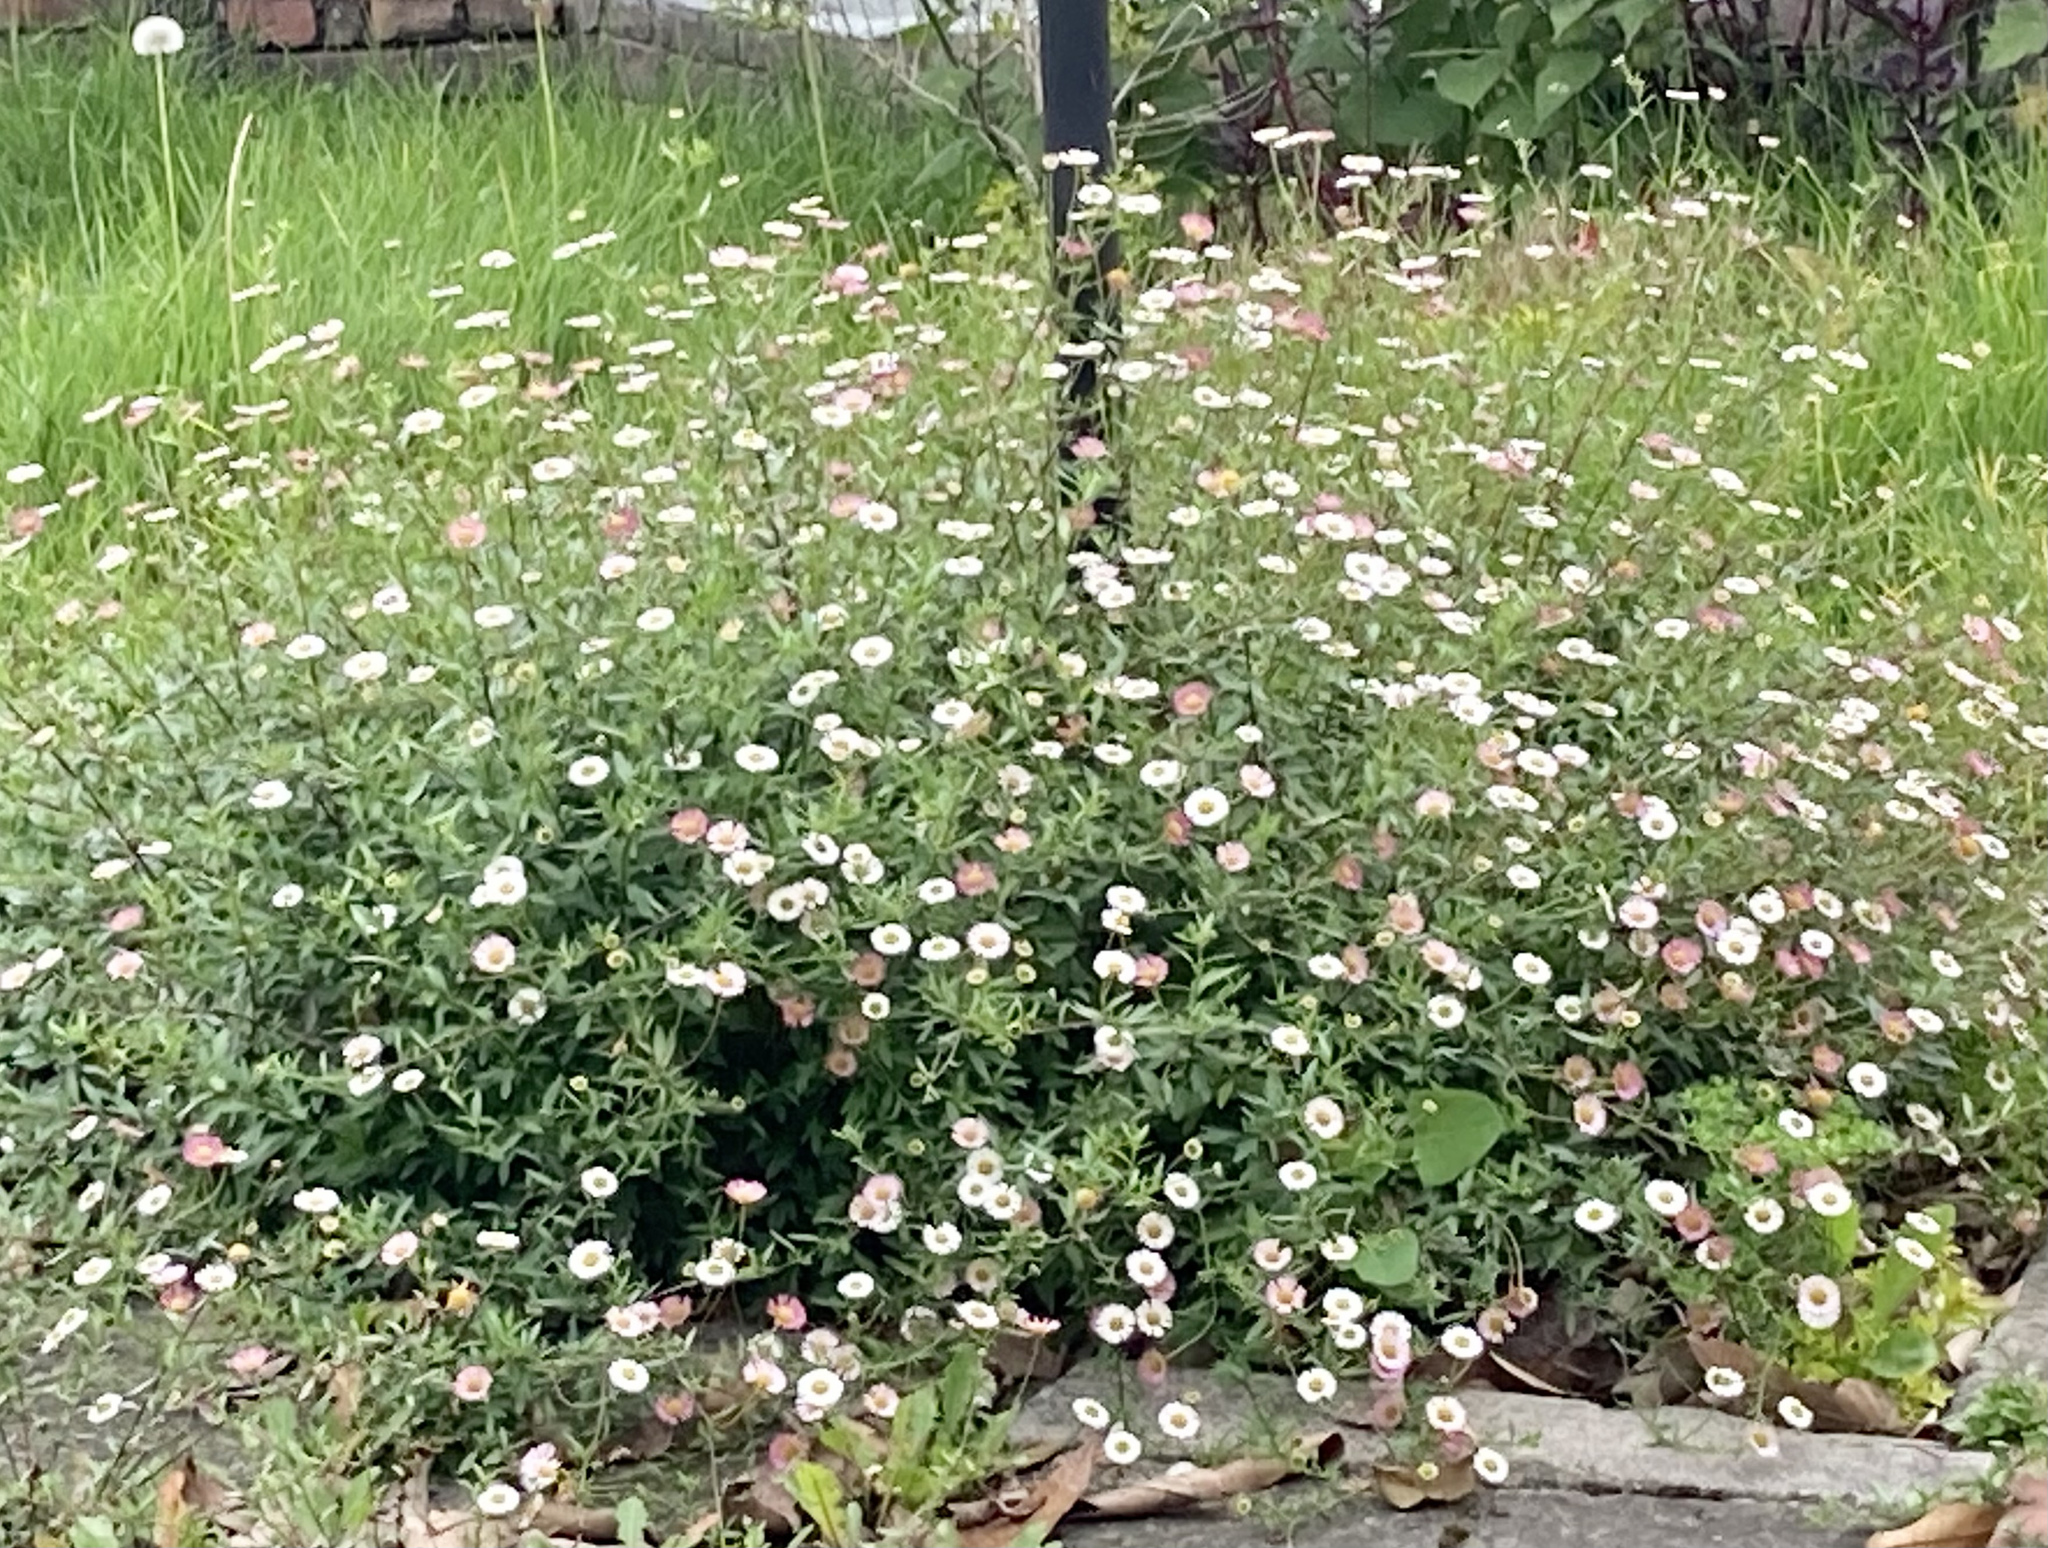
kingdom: Plantae
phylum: Tracheophyta
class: Magnoliopsida
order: Asterales
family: Asteraceae
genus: Erigeron
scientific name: Erigeron karvinskianus
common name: Mexican fleabane
